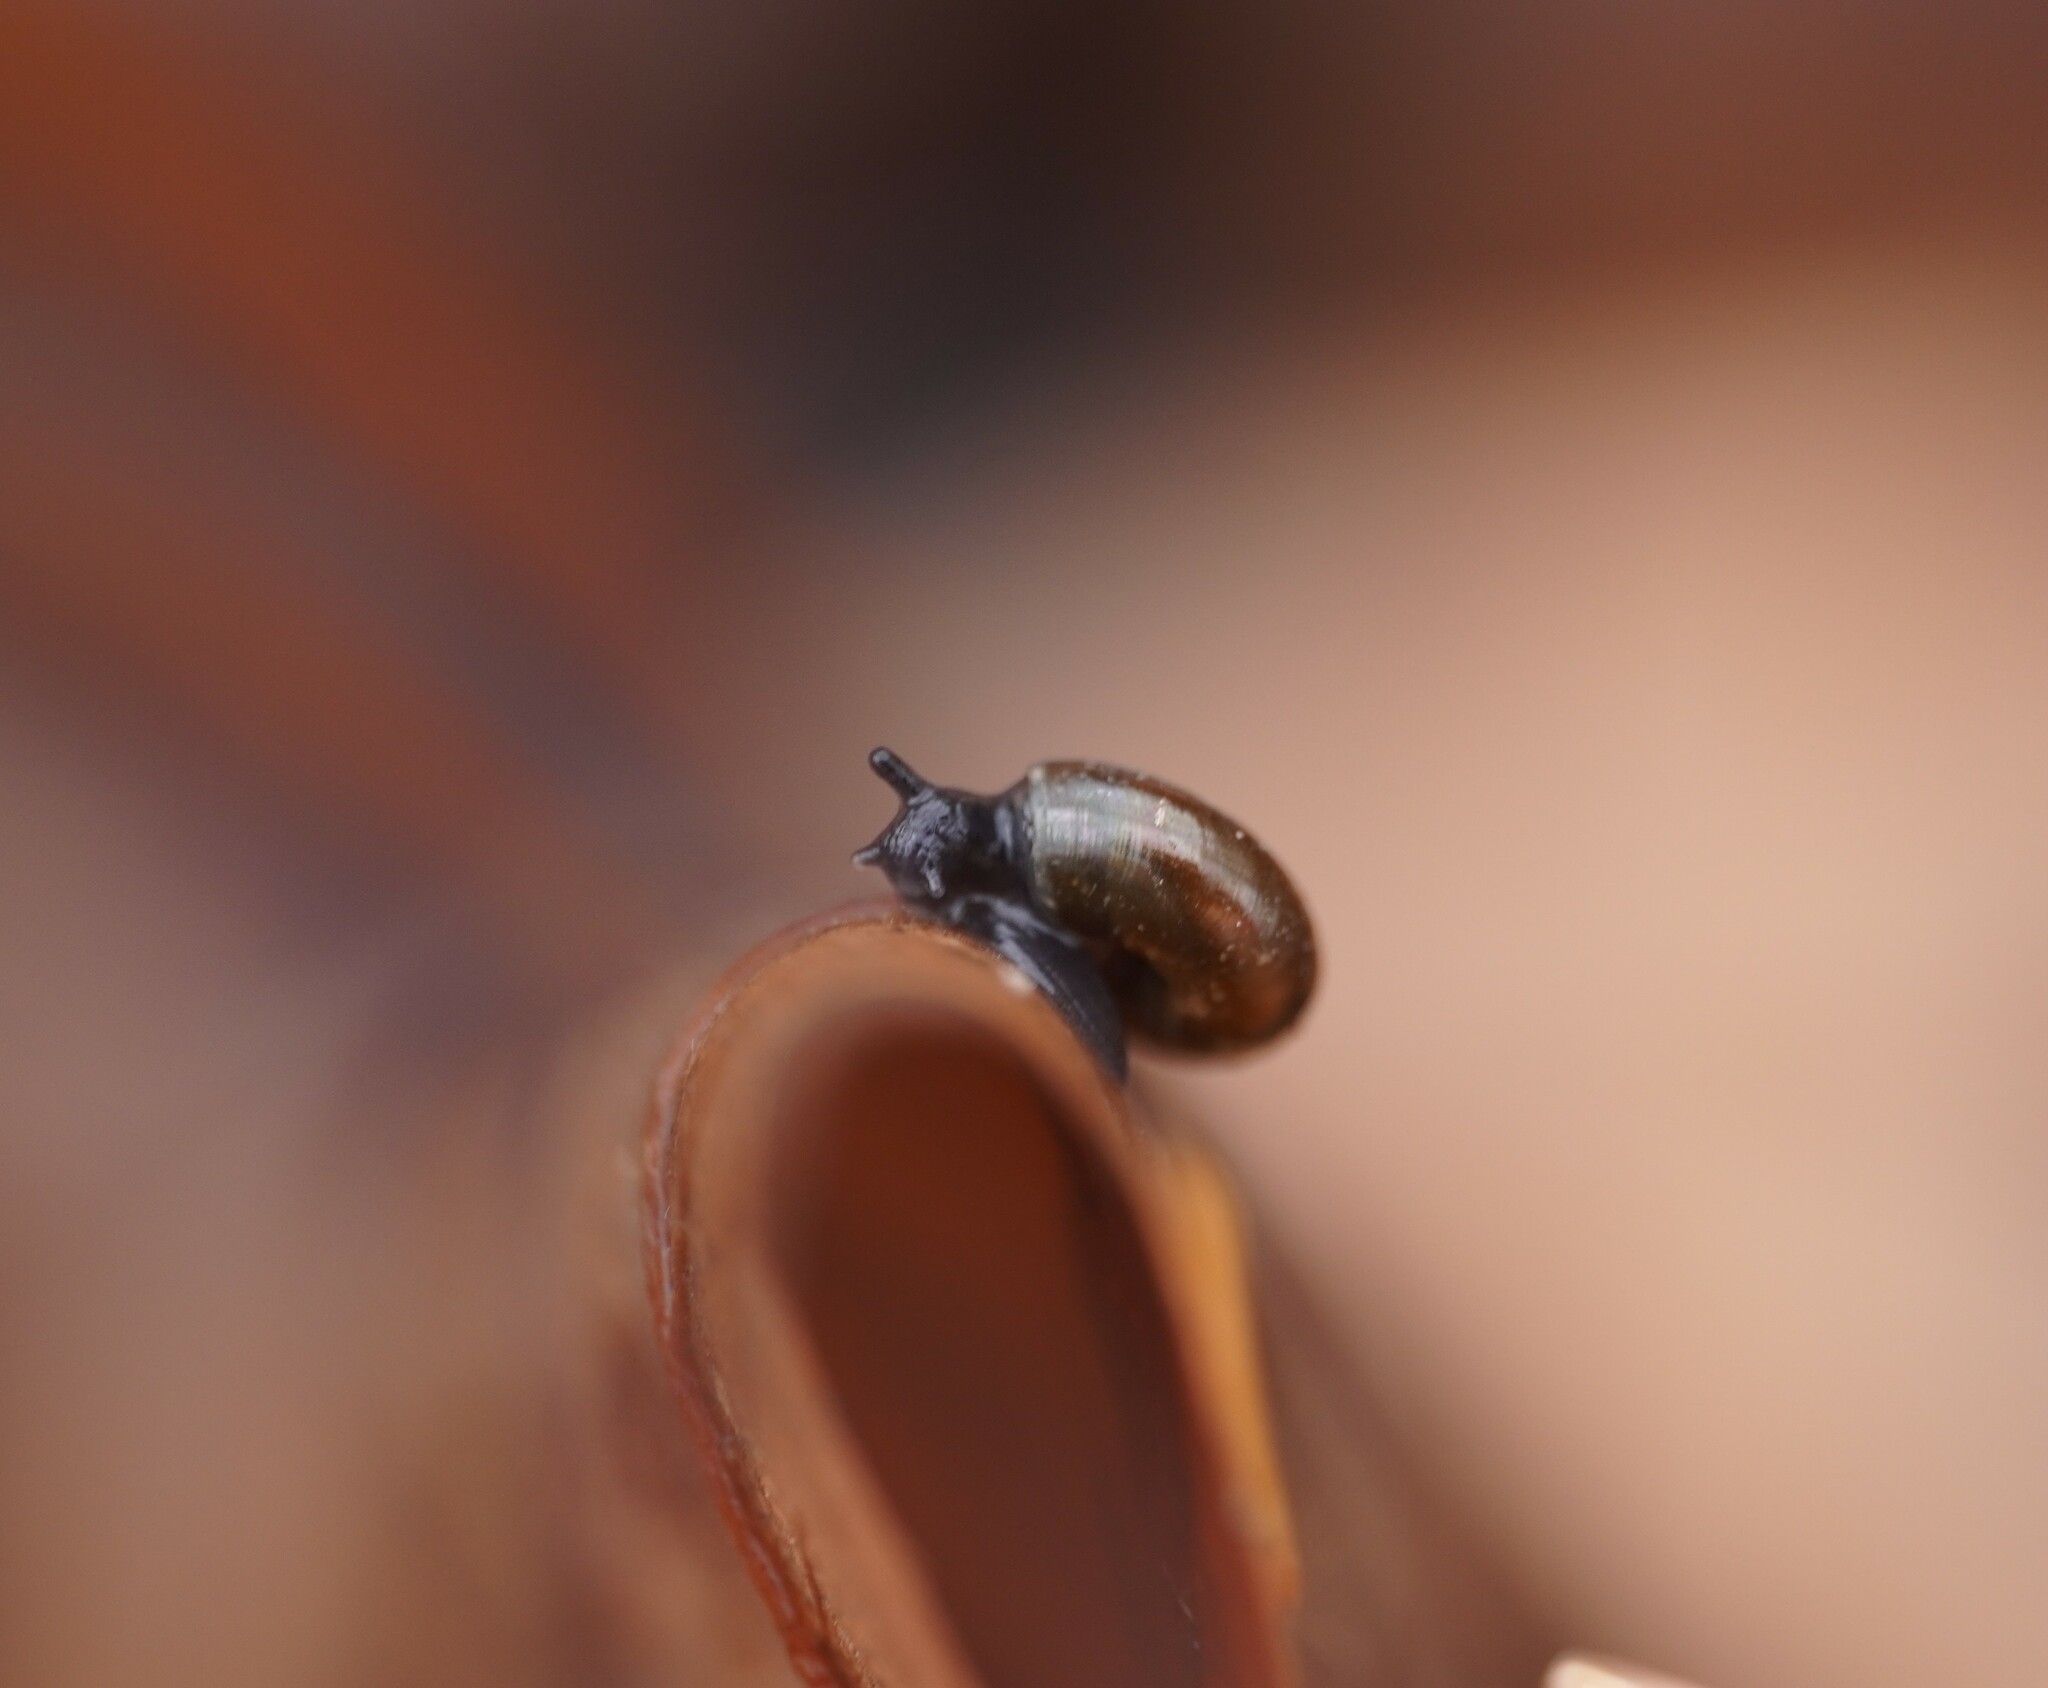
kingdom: Animalia
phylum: Mollusca
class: Gastropoda
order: Stylommatophora
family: Gastrodontidae
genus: Zonitoides
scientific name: Zonitoides nitidus
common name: Shiny glass snail
